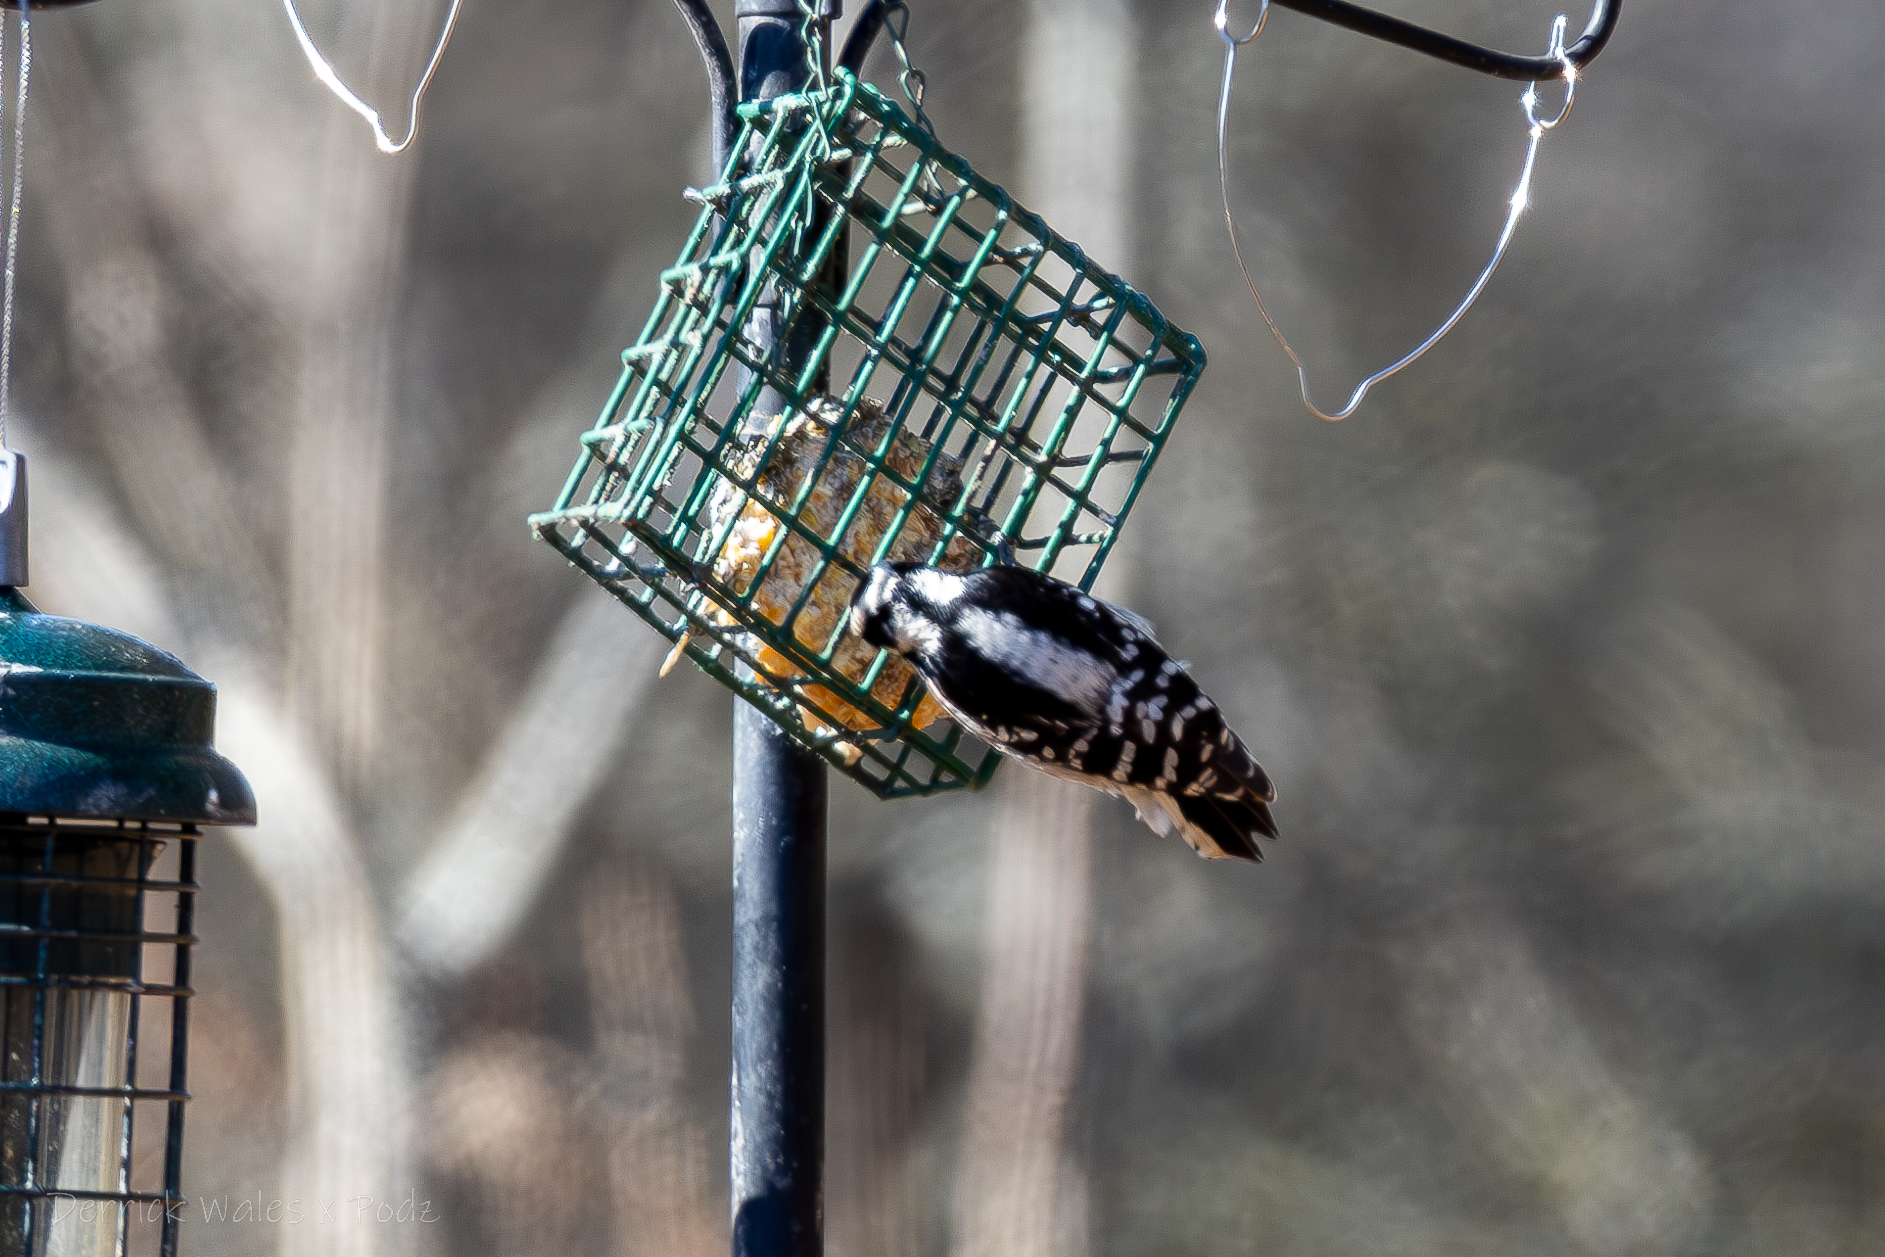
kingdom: Animalia
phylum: Chordata
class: Aves
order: Piciformes
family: Picidae
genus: Dryobates
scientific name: Dryobates pubescens
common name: Downy woodpecker
